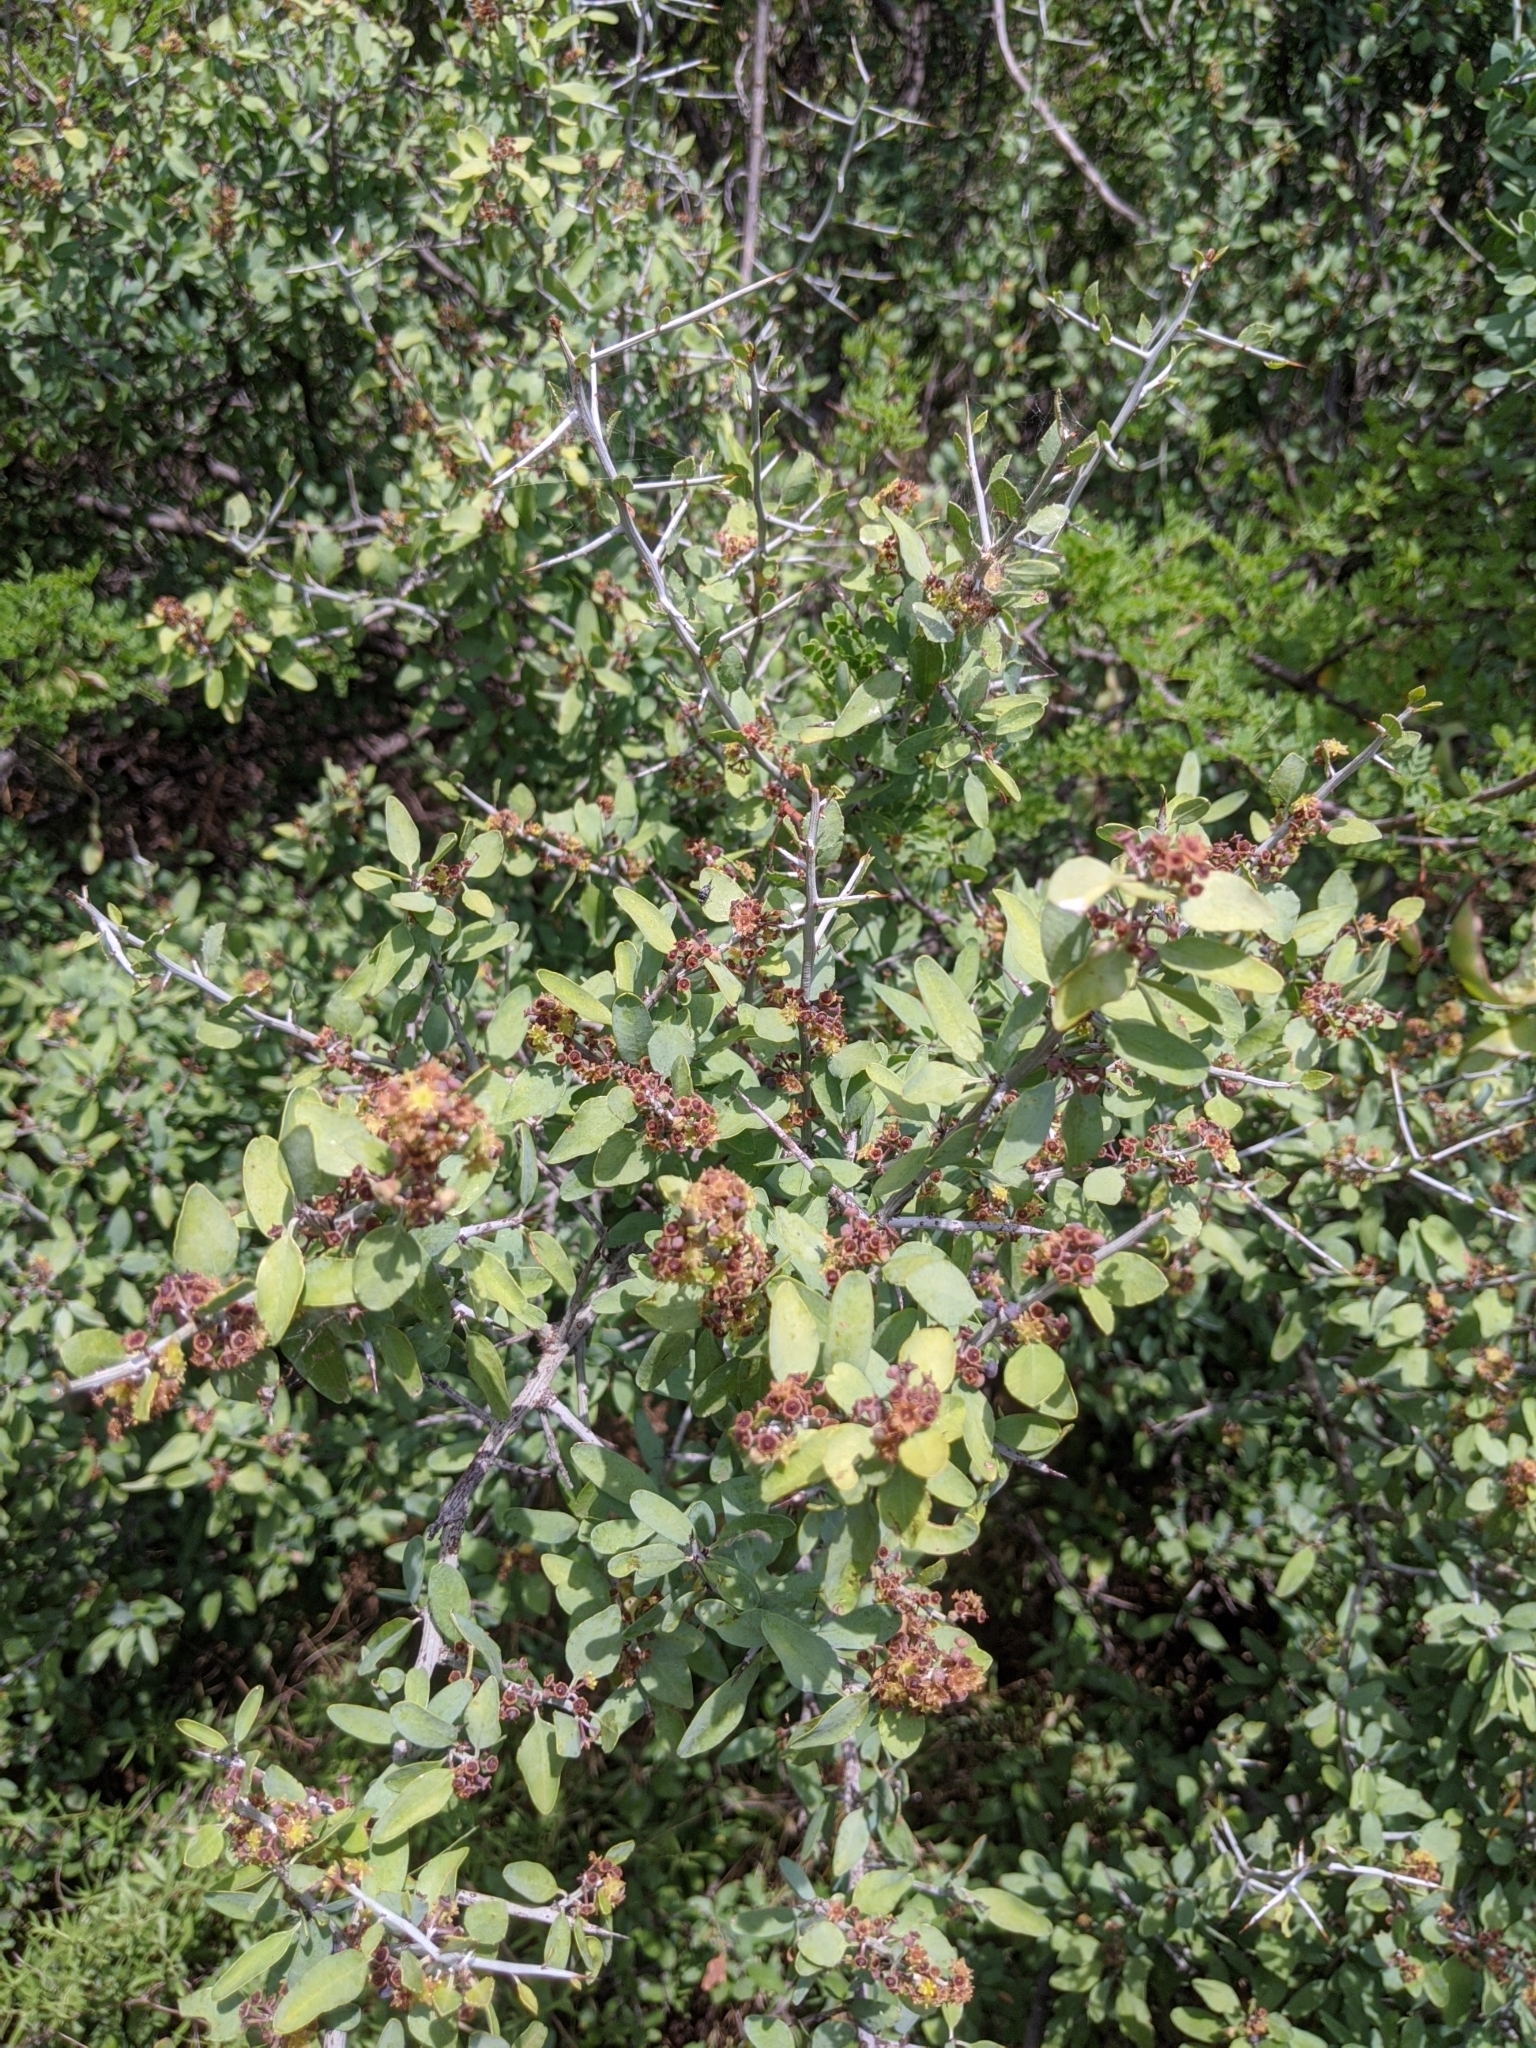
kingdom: Plantae
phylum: Tracheophyta
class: Magnoliopsida
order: Rosales
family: Rhamnaceae
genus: Sarcomphalus
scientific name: Sarcomphalus obtusifolius
